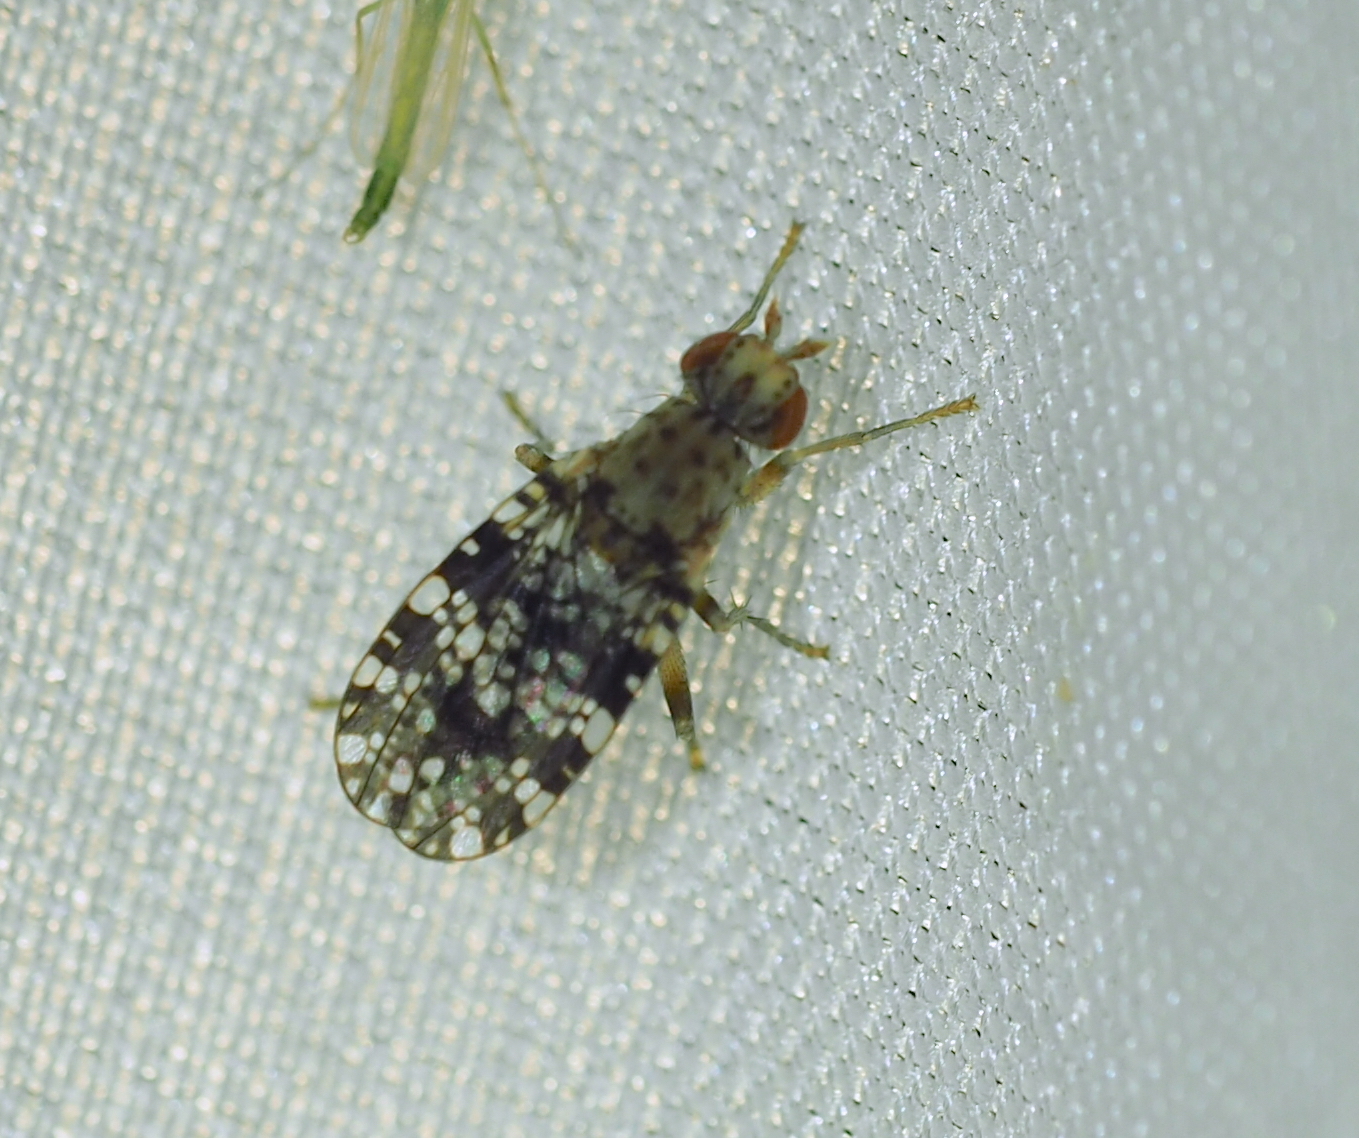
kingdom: Animalia
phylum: Arthropoda
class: Insecta
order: Diptera
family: Sciomyzidae
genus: Trypetoptera
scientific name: Trypetoptera punctulata
